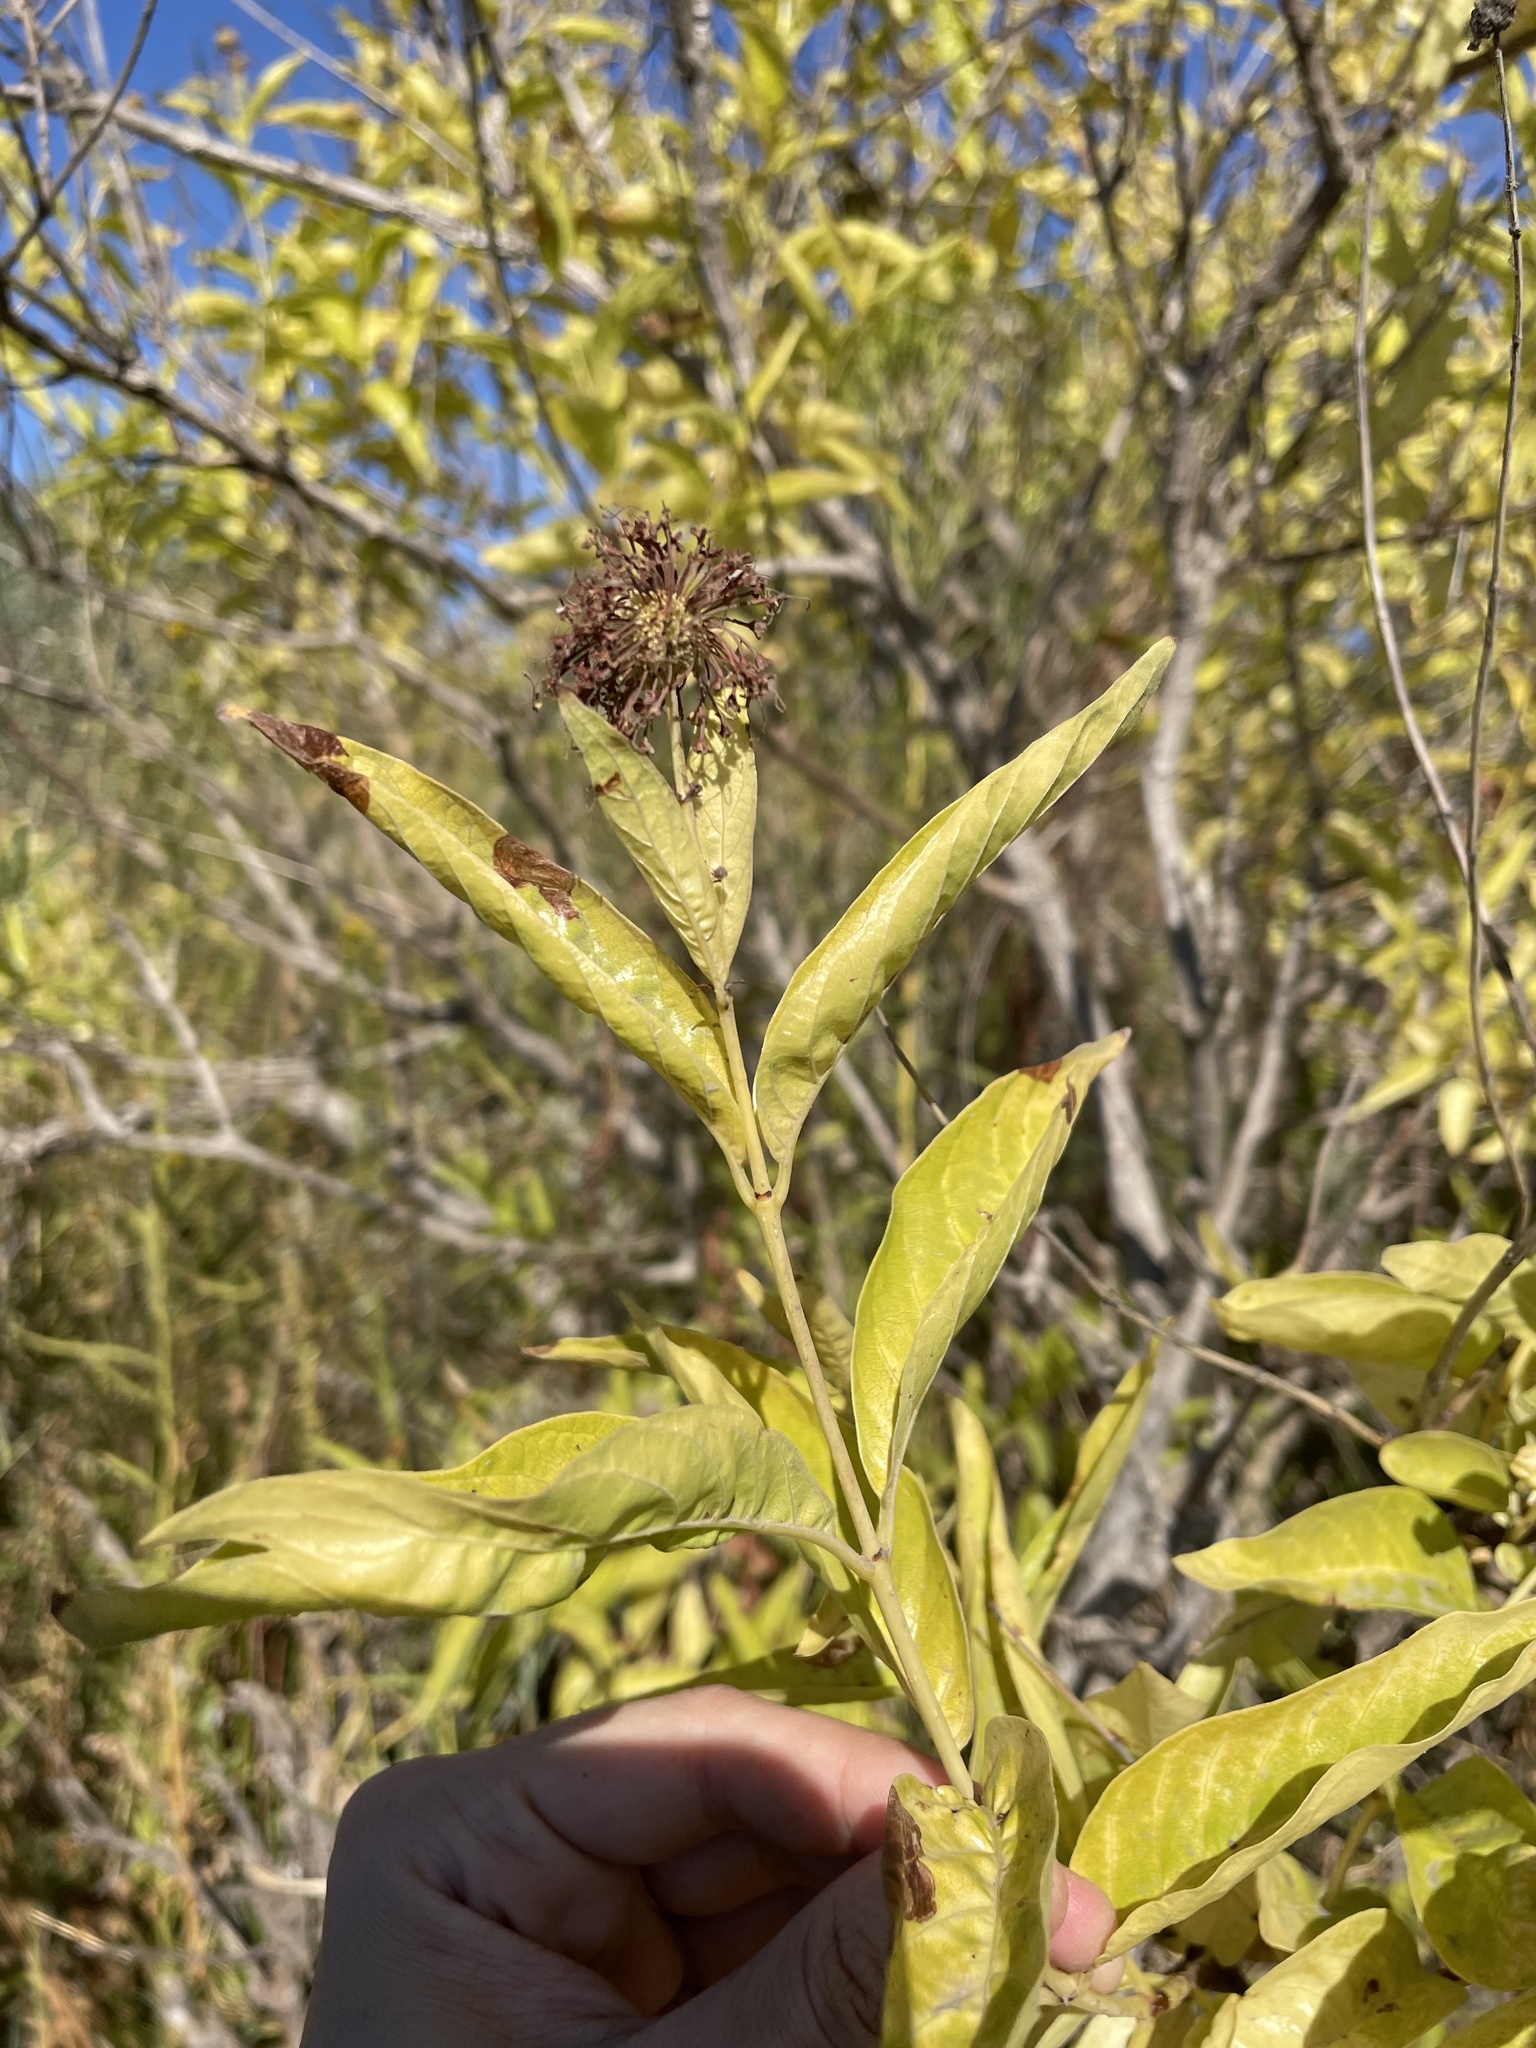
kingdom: Plantae
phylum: Tracheophyta
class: Magnoliopsida
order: Gentianales
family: Rubiaceae
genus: Cephalanthus
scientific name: Cephalanthus occidentalis
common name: Button-willow
